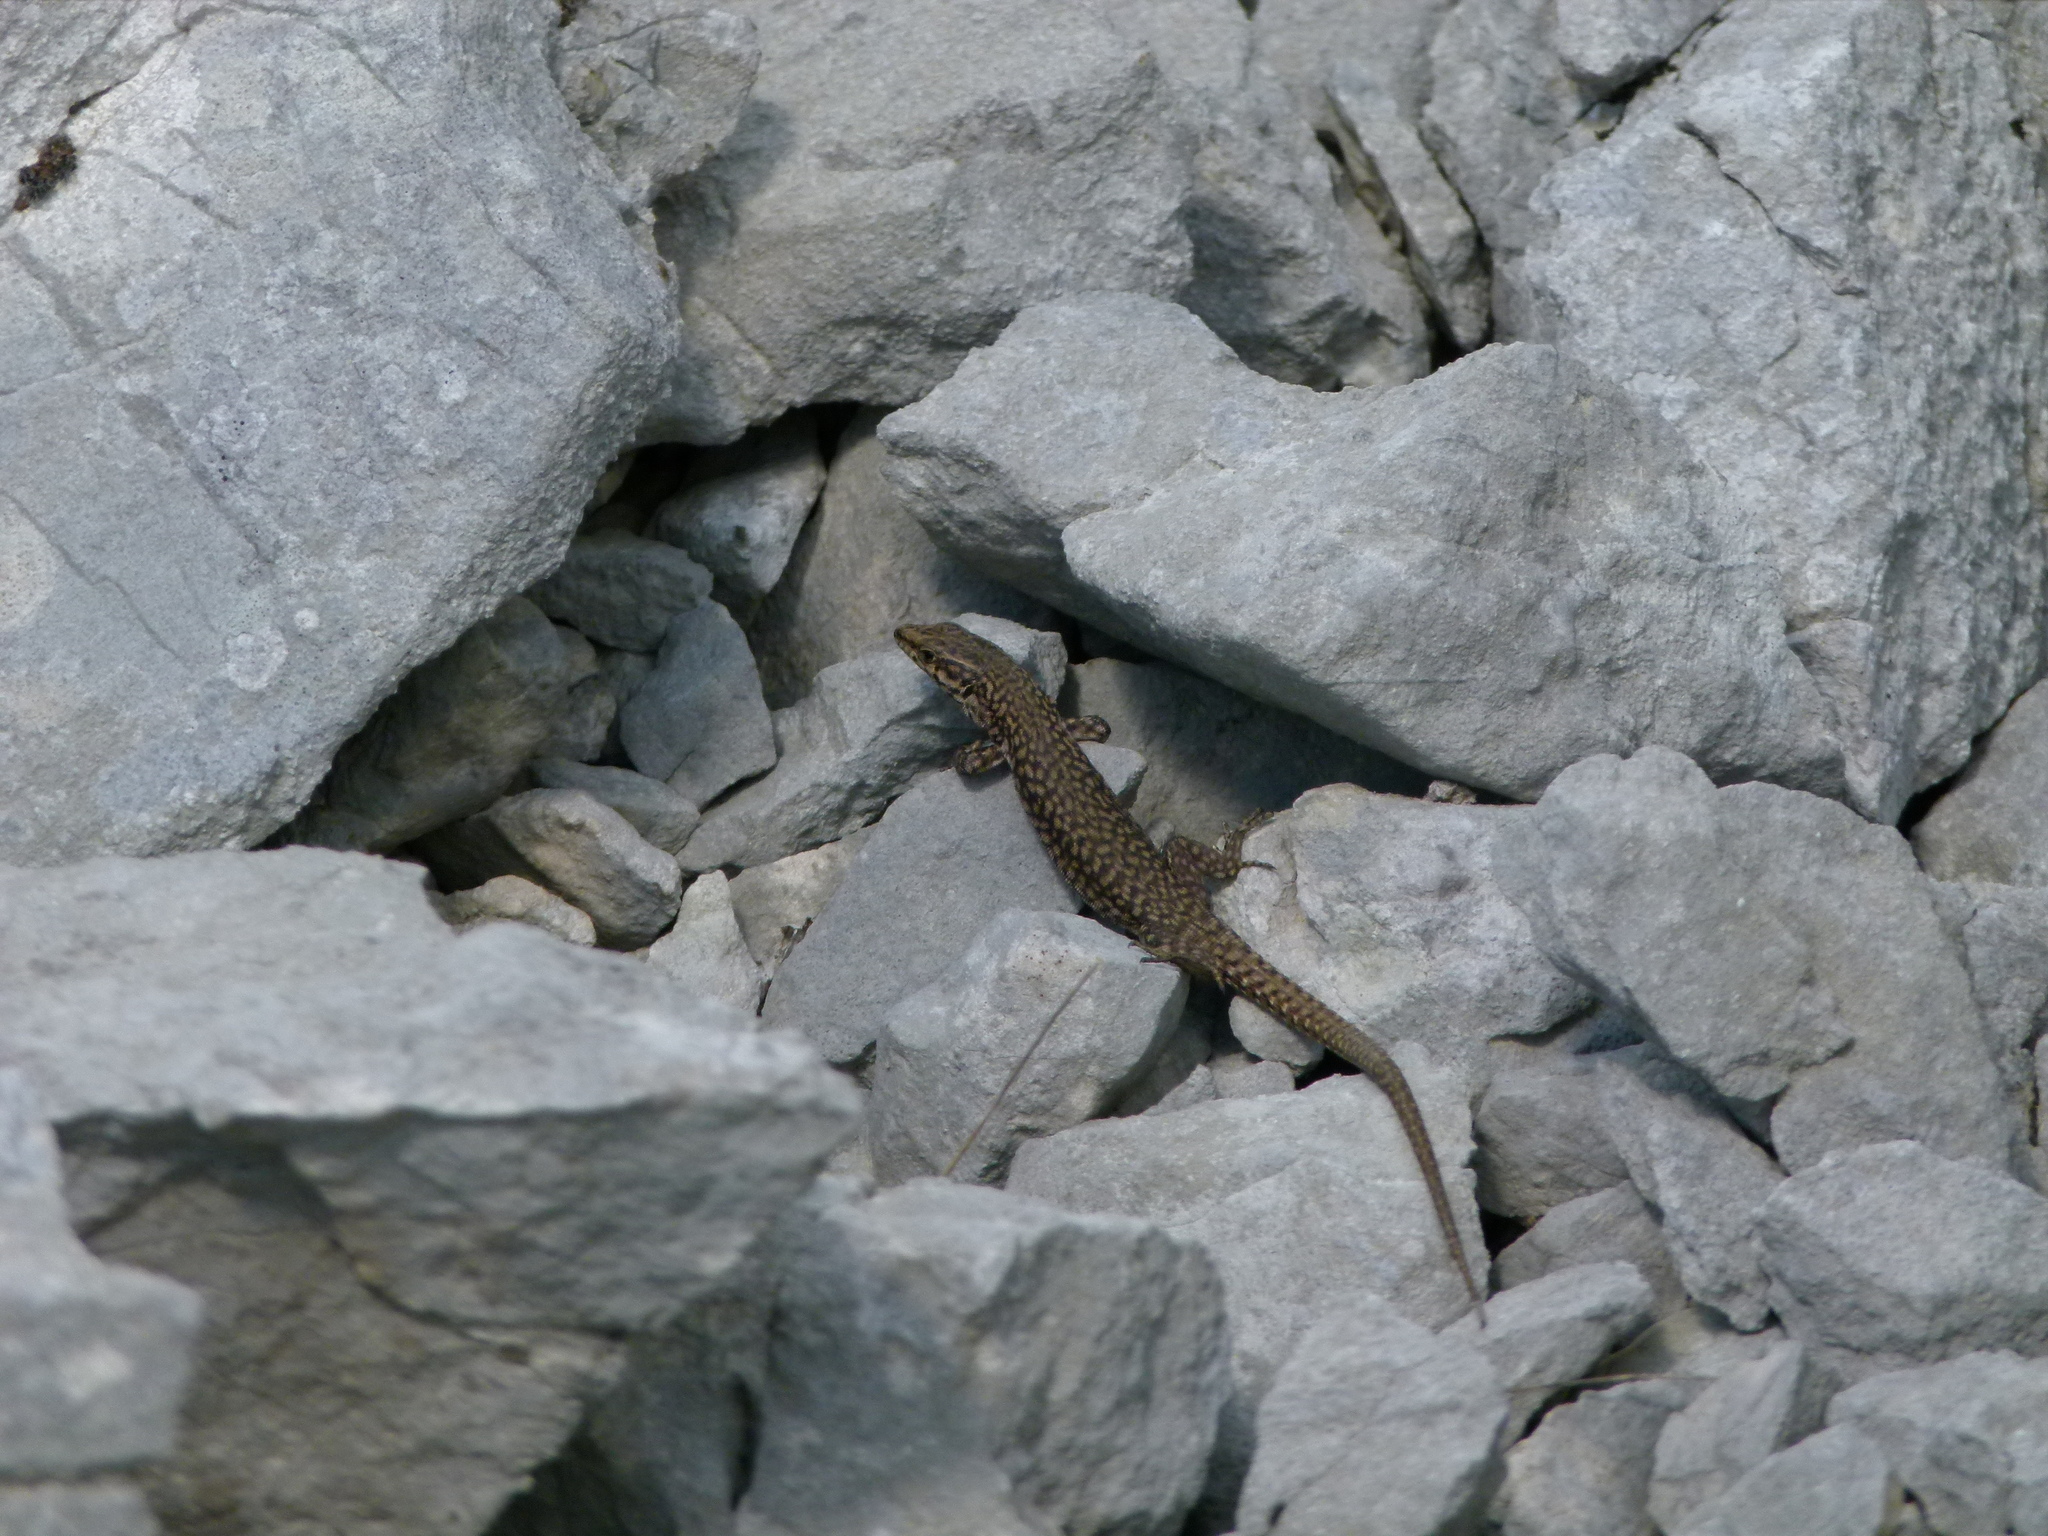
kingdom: Animalia
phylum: Chordata
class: Squamata
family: Lacertidae
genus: Podarcis
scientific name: Podarcis liolepis
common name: Catalonian wall lizard
